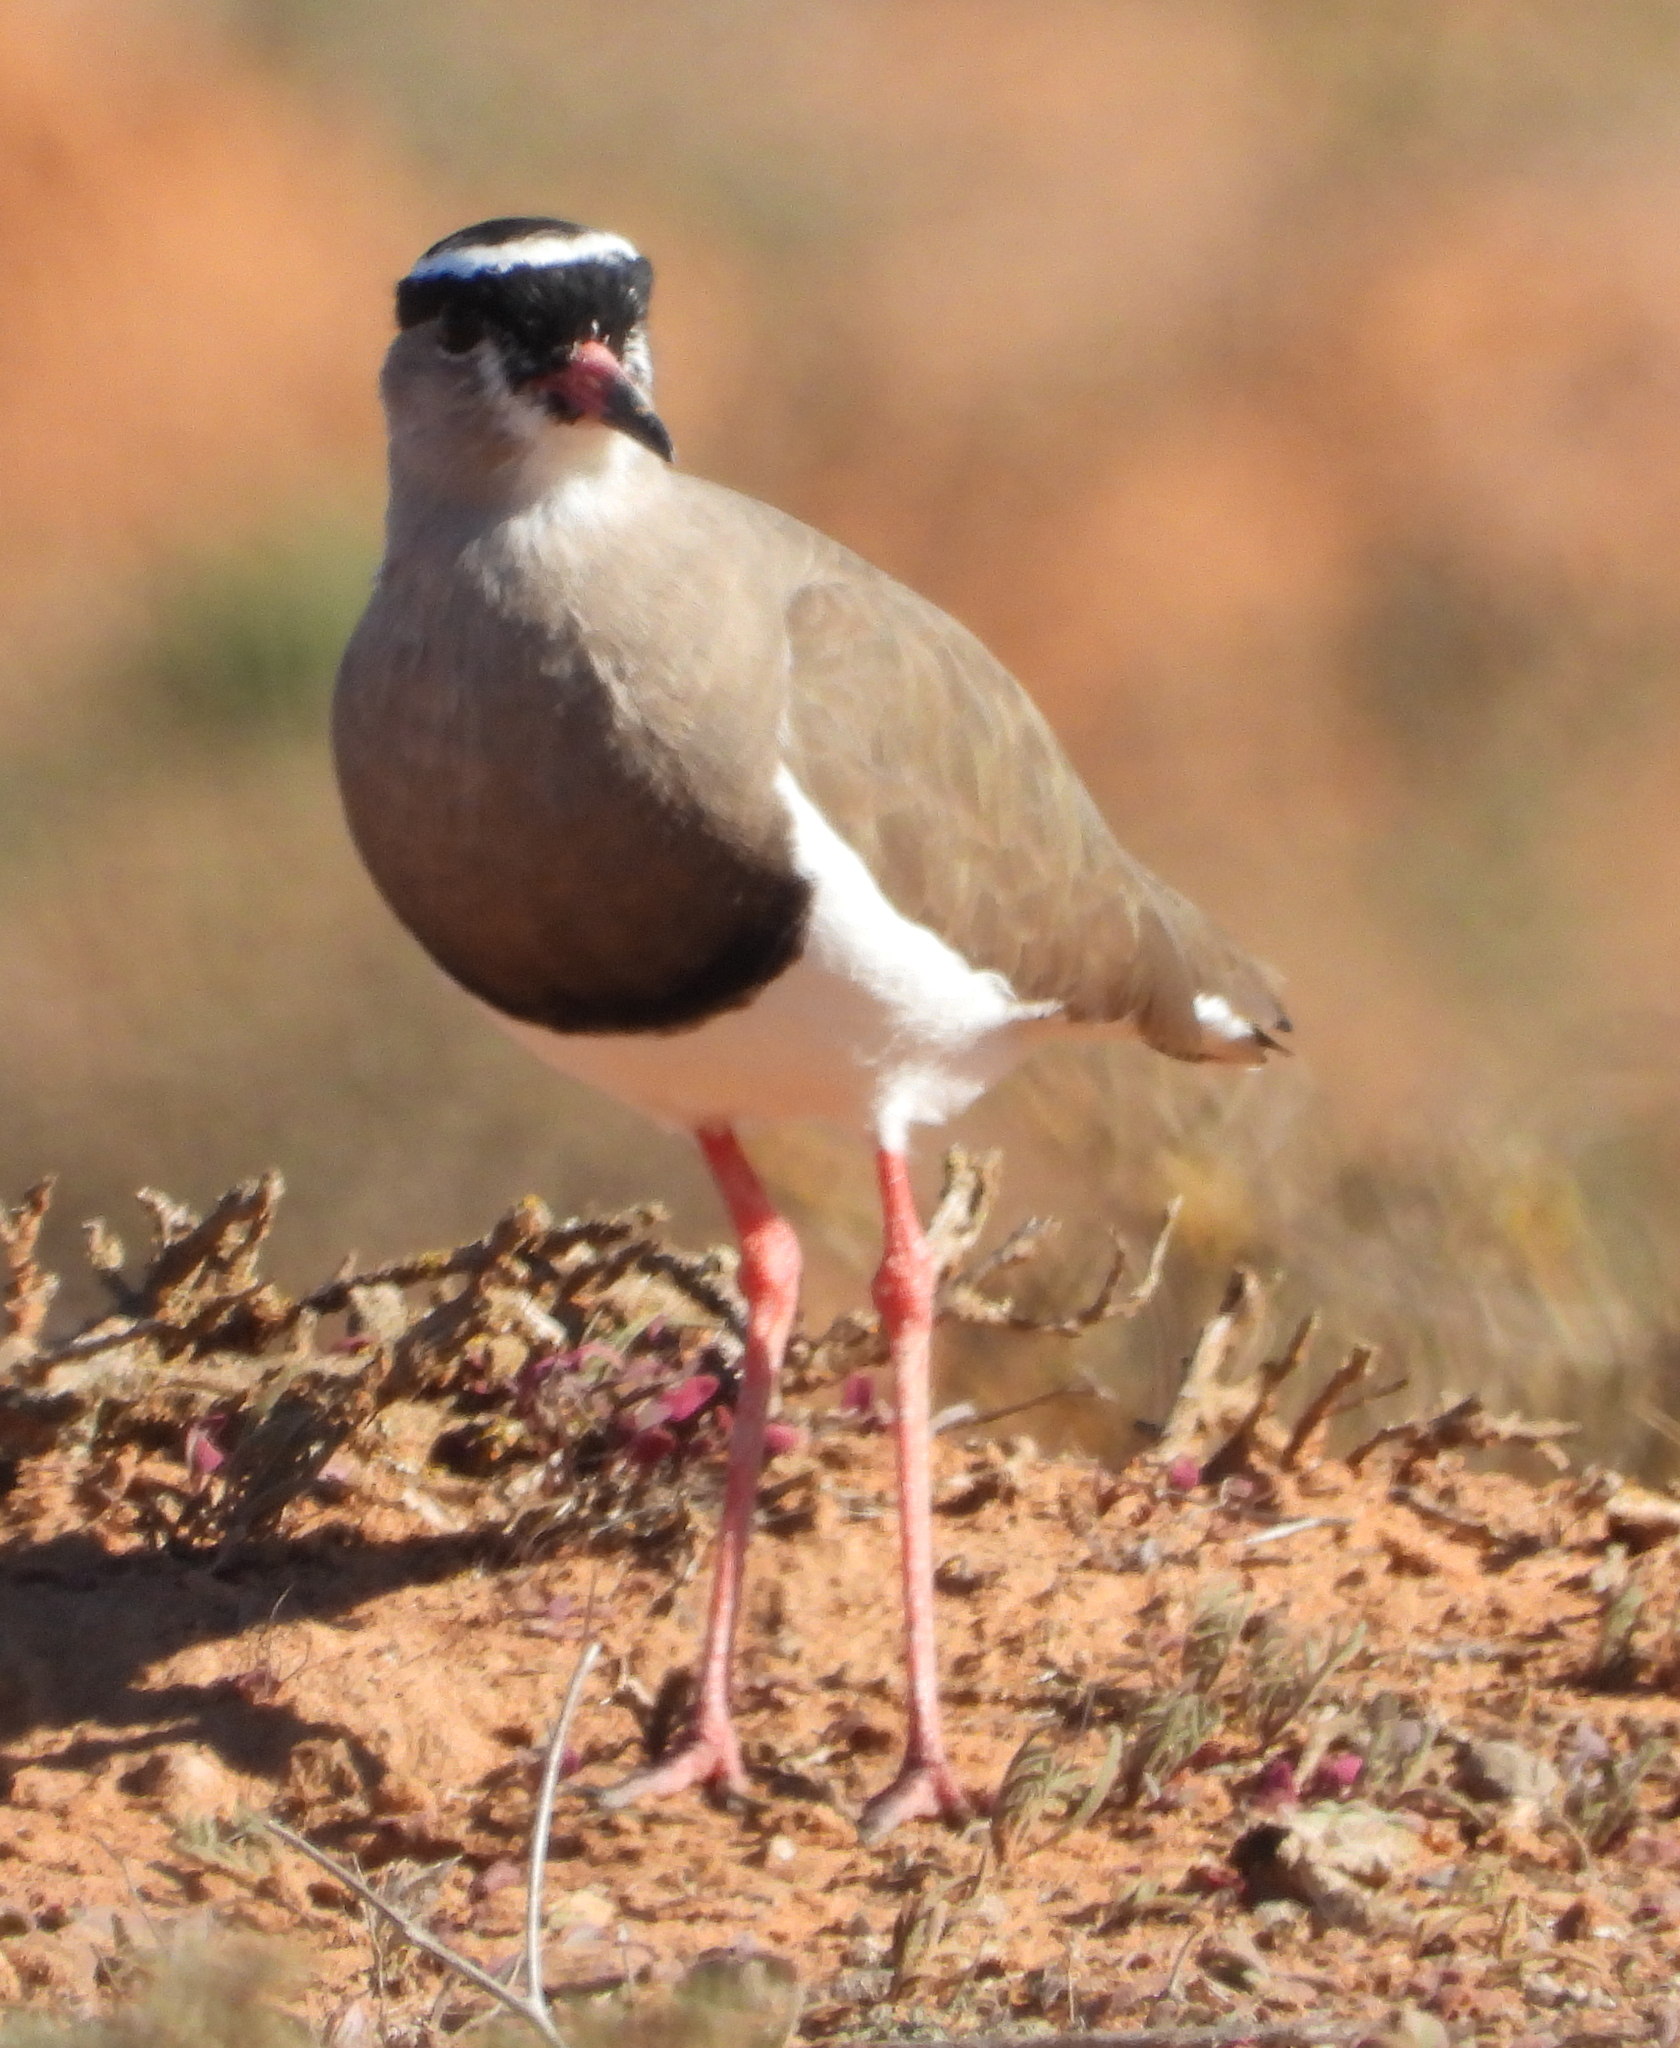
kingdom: Animalia
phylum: Chordata
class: Aves
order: Charadriiformes
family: Charadriidae
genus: Vanellus
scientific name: Vanellus coronatus
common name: Crowned lapwing
